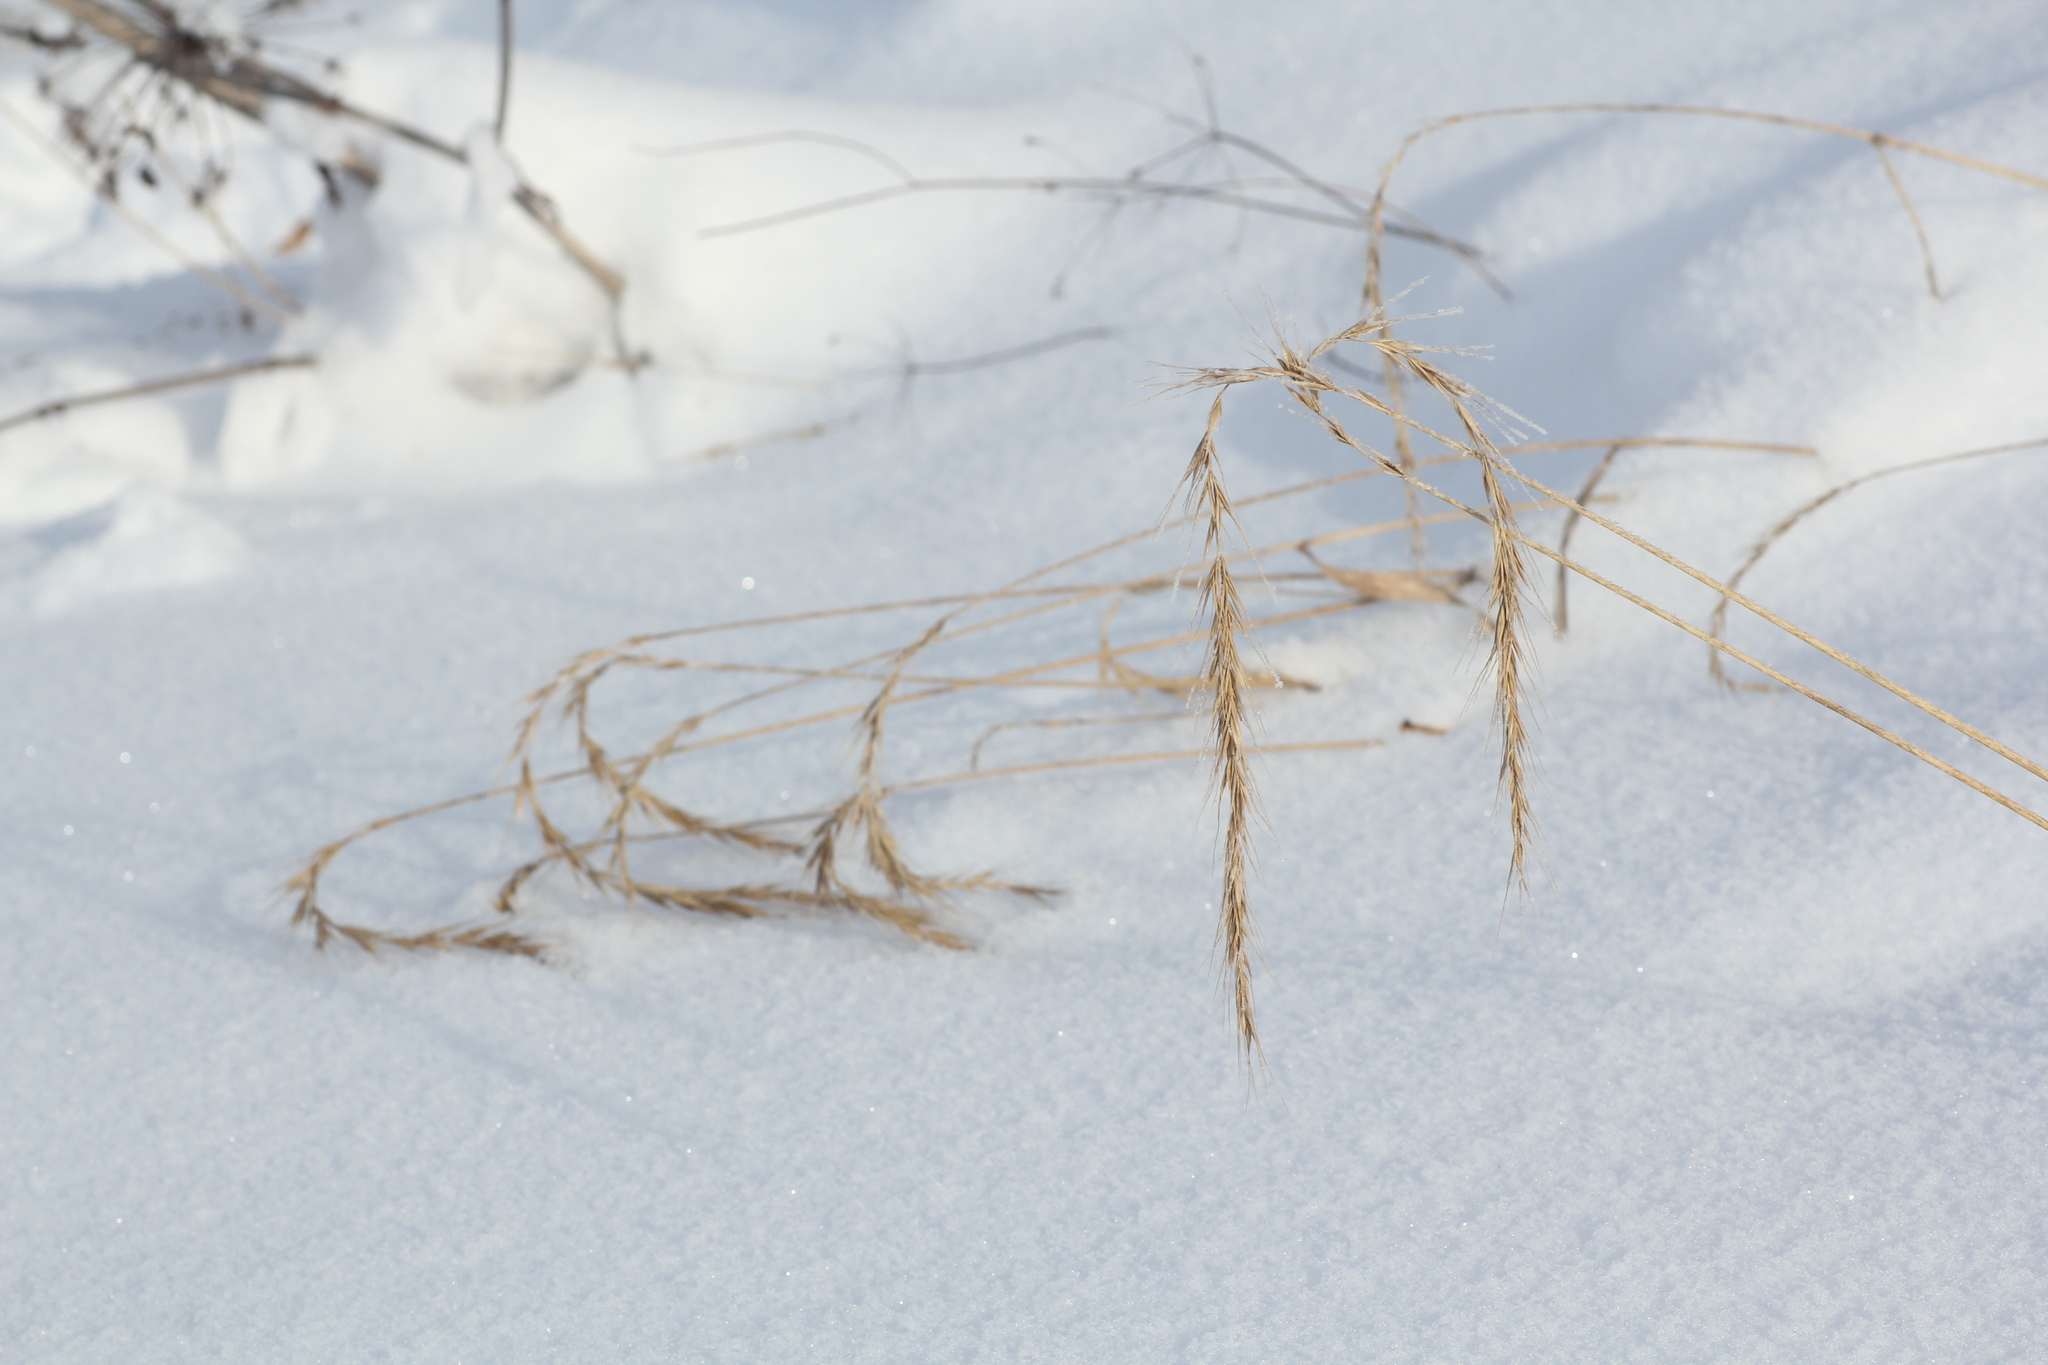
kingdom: Plantae
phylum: Tracheophyta
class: Liliopsida
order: Poales
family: Poaceae
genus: Elymus
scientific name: Elymus sibiricus
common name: Siberian wildrye
